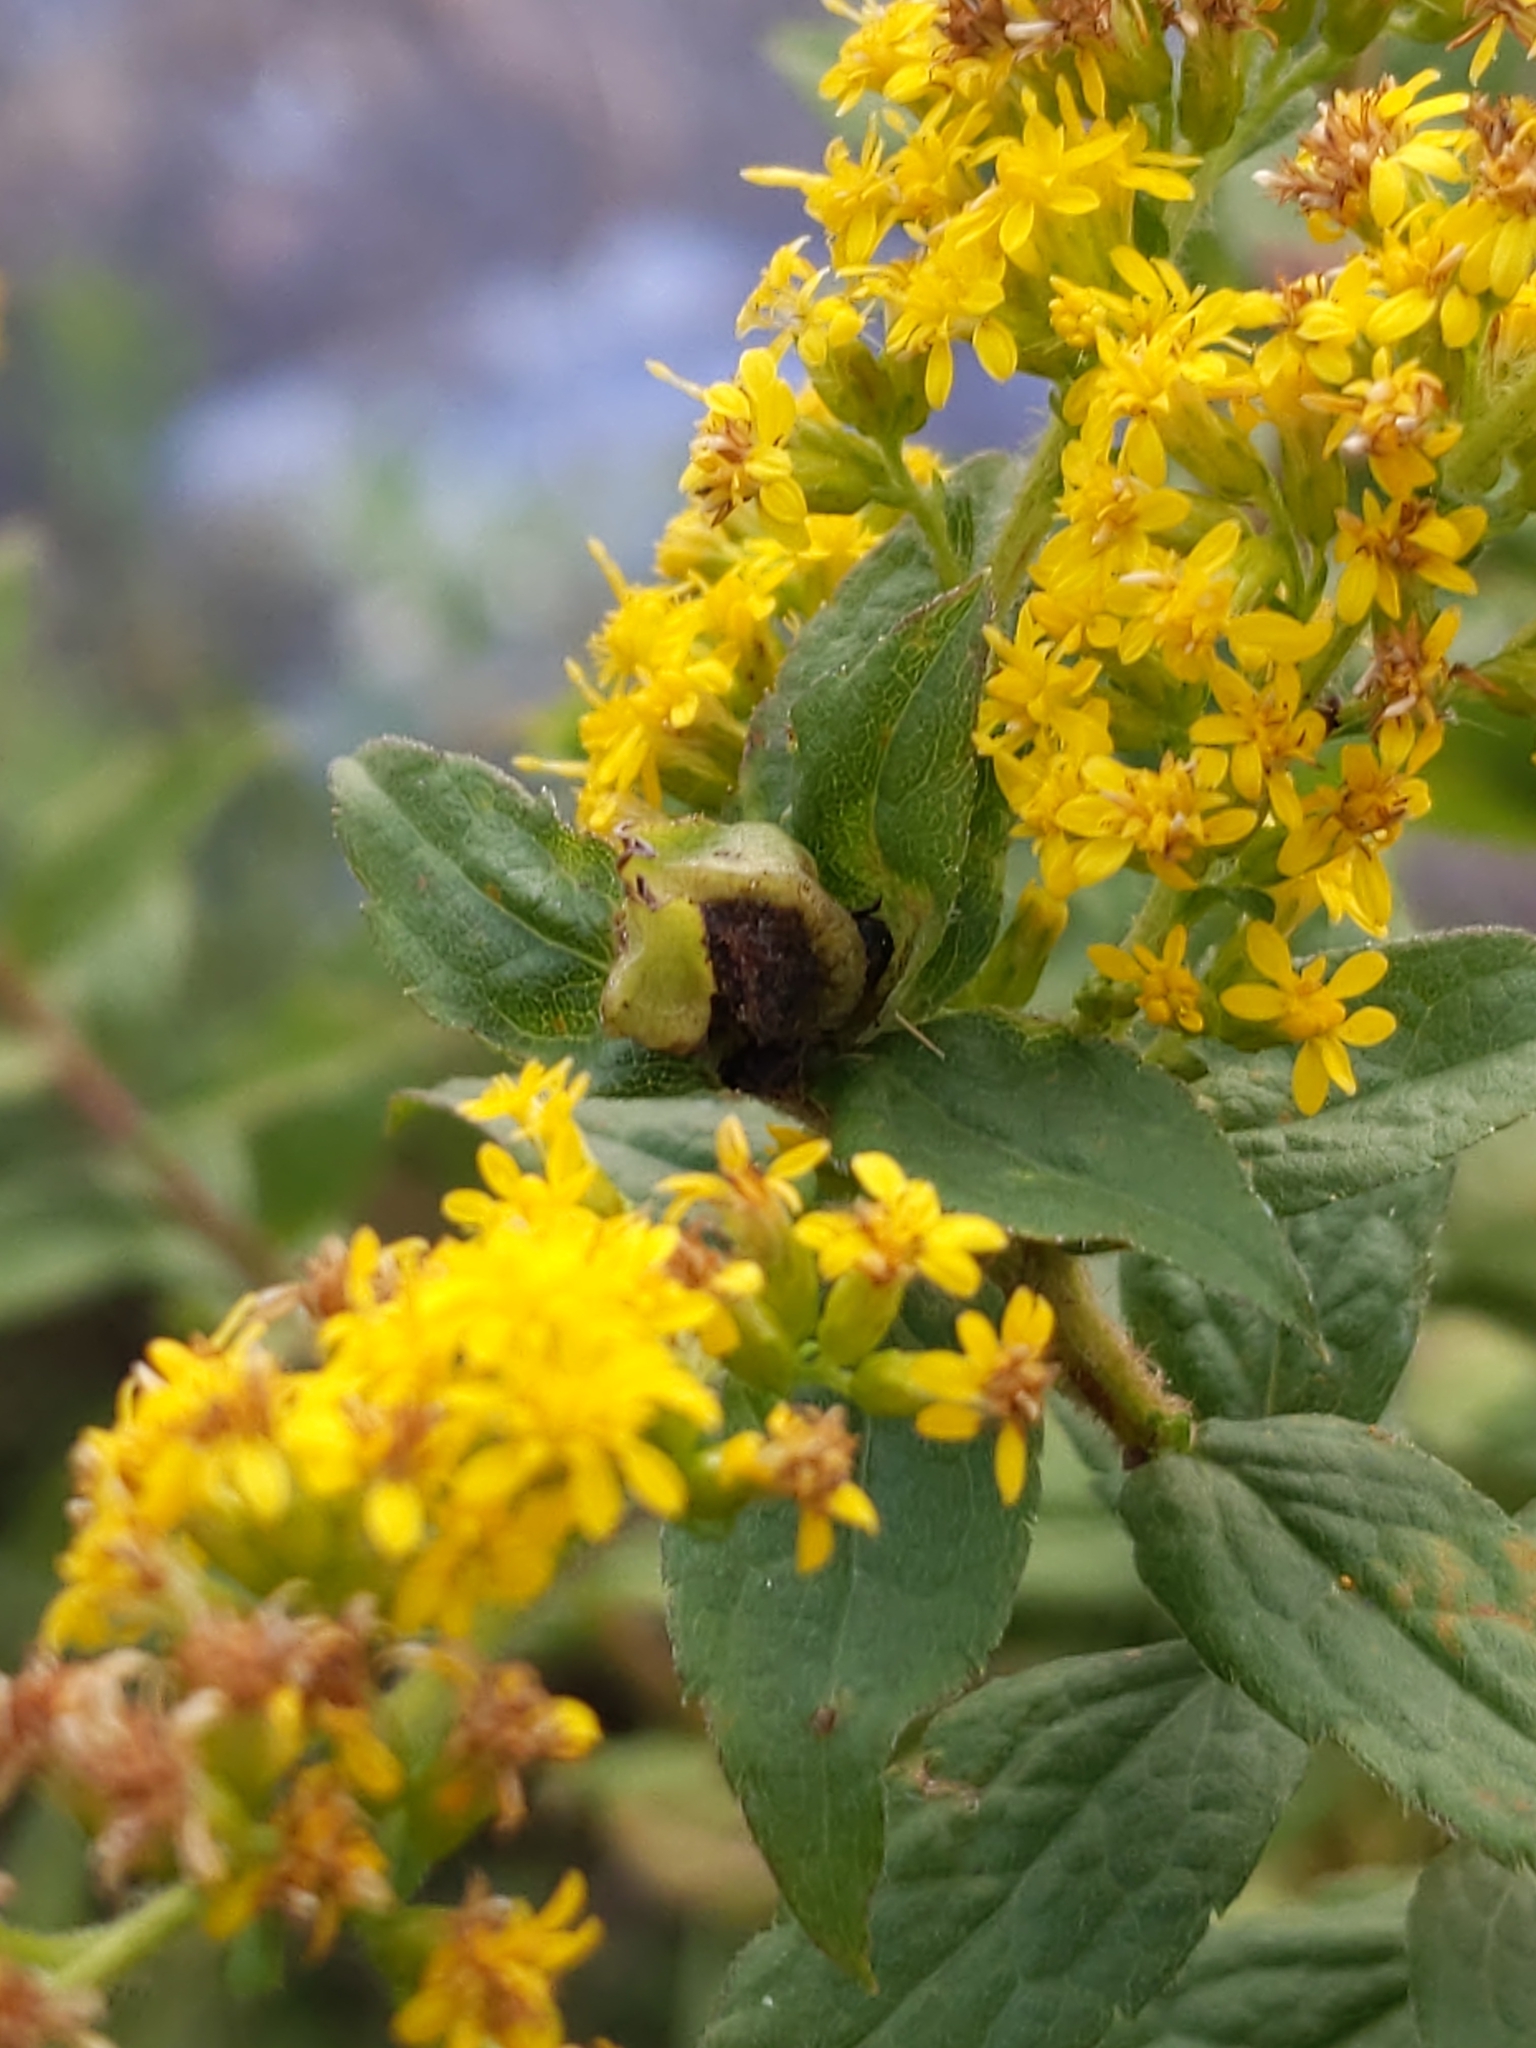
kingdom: Animalia
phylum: Arthropoda
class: Insecta
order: Diptera
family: Cecidomyiidae
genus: Dasineura
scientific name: Dasineura folliculi
